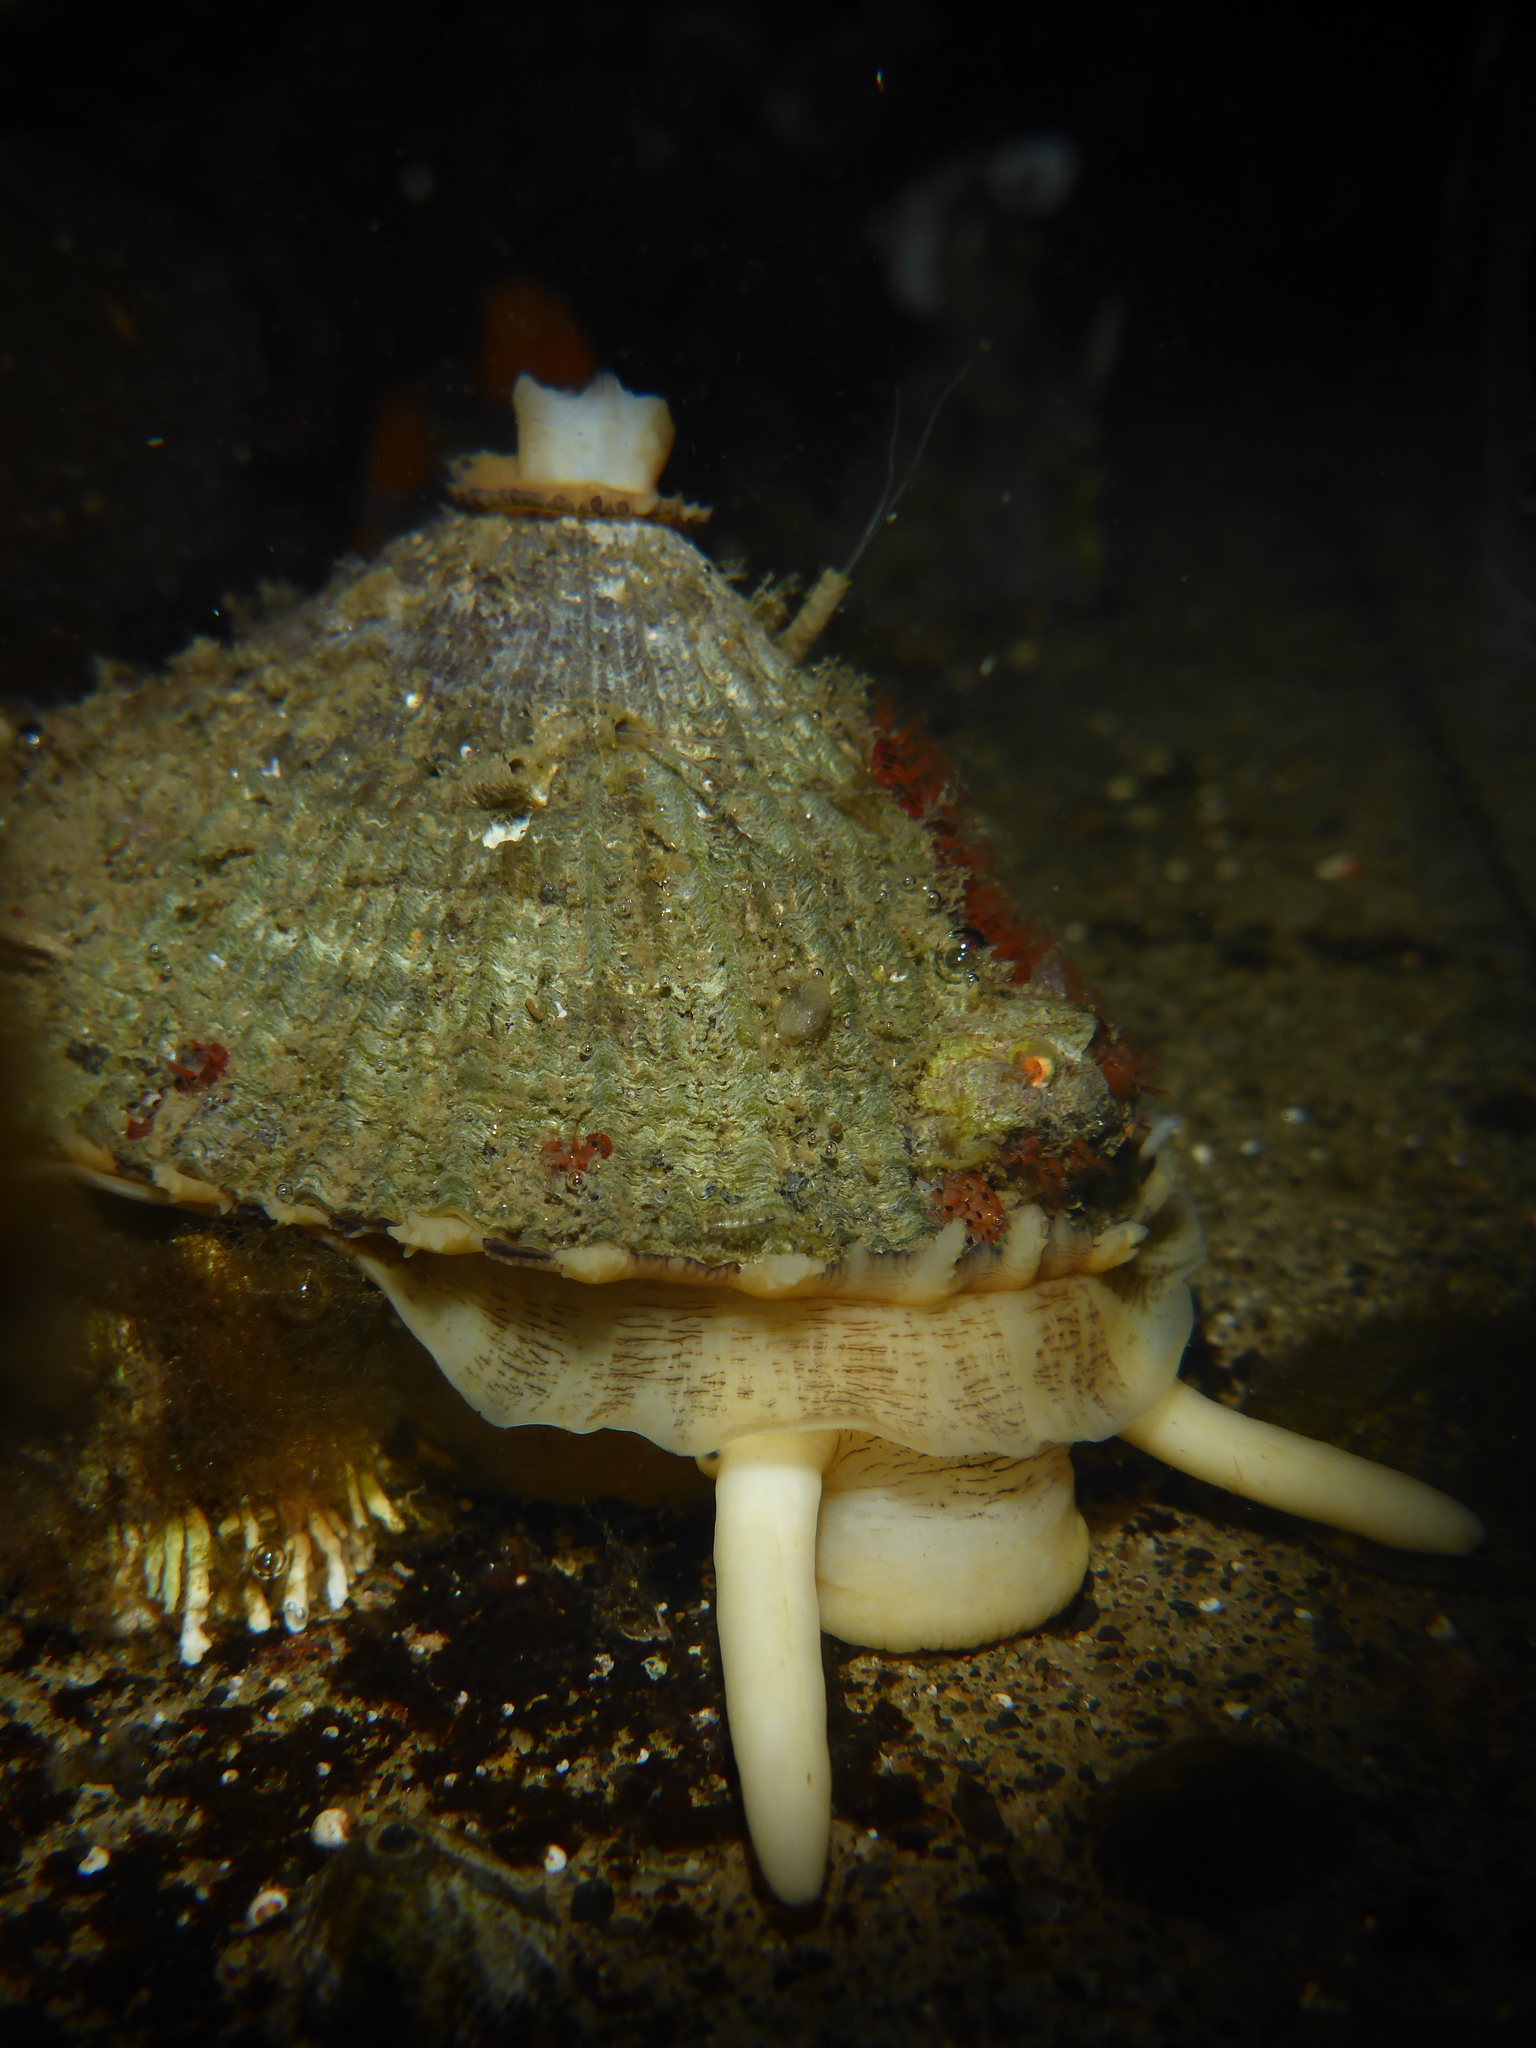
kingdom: Animalia
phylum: Mollusca
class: Gastropoda
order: Lepetellida
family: Fissurellidae
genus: Diodora
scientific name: Diodora aspera
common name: Rough keyhole limpet
